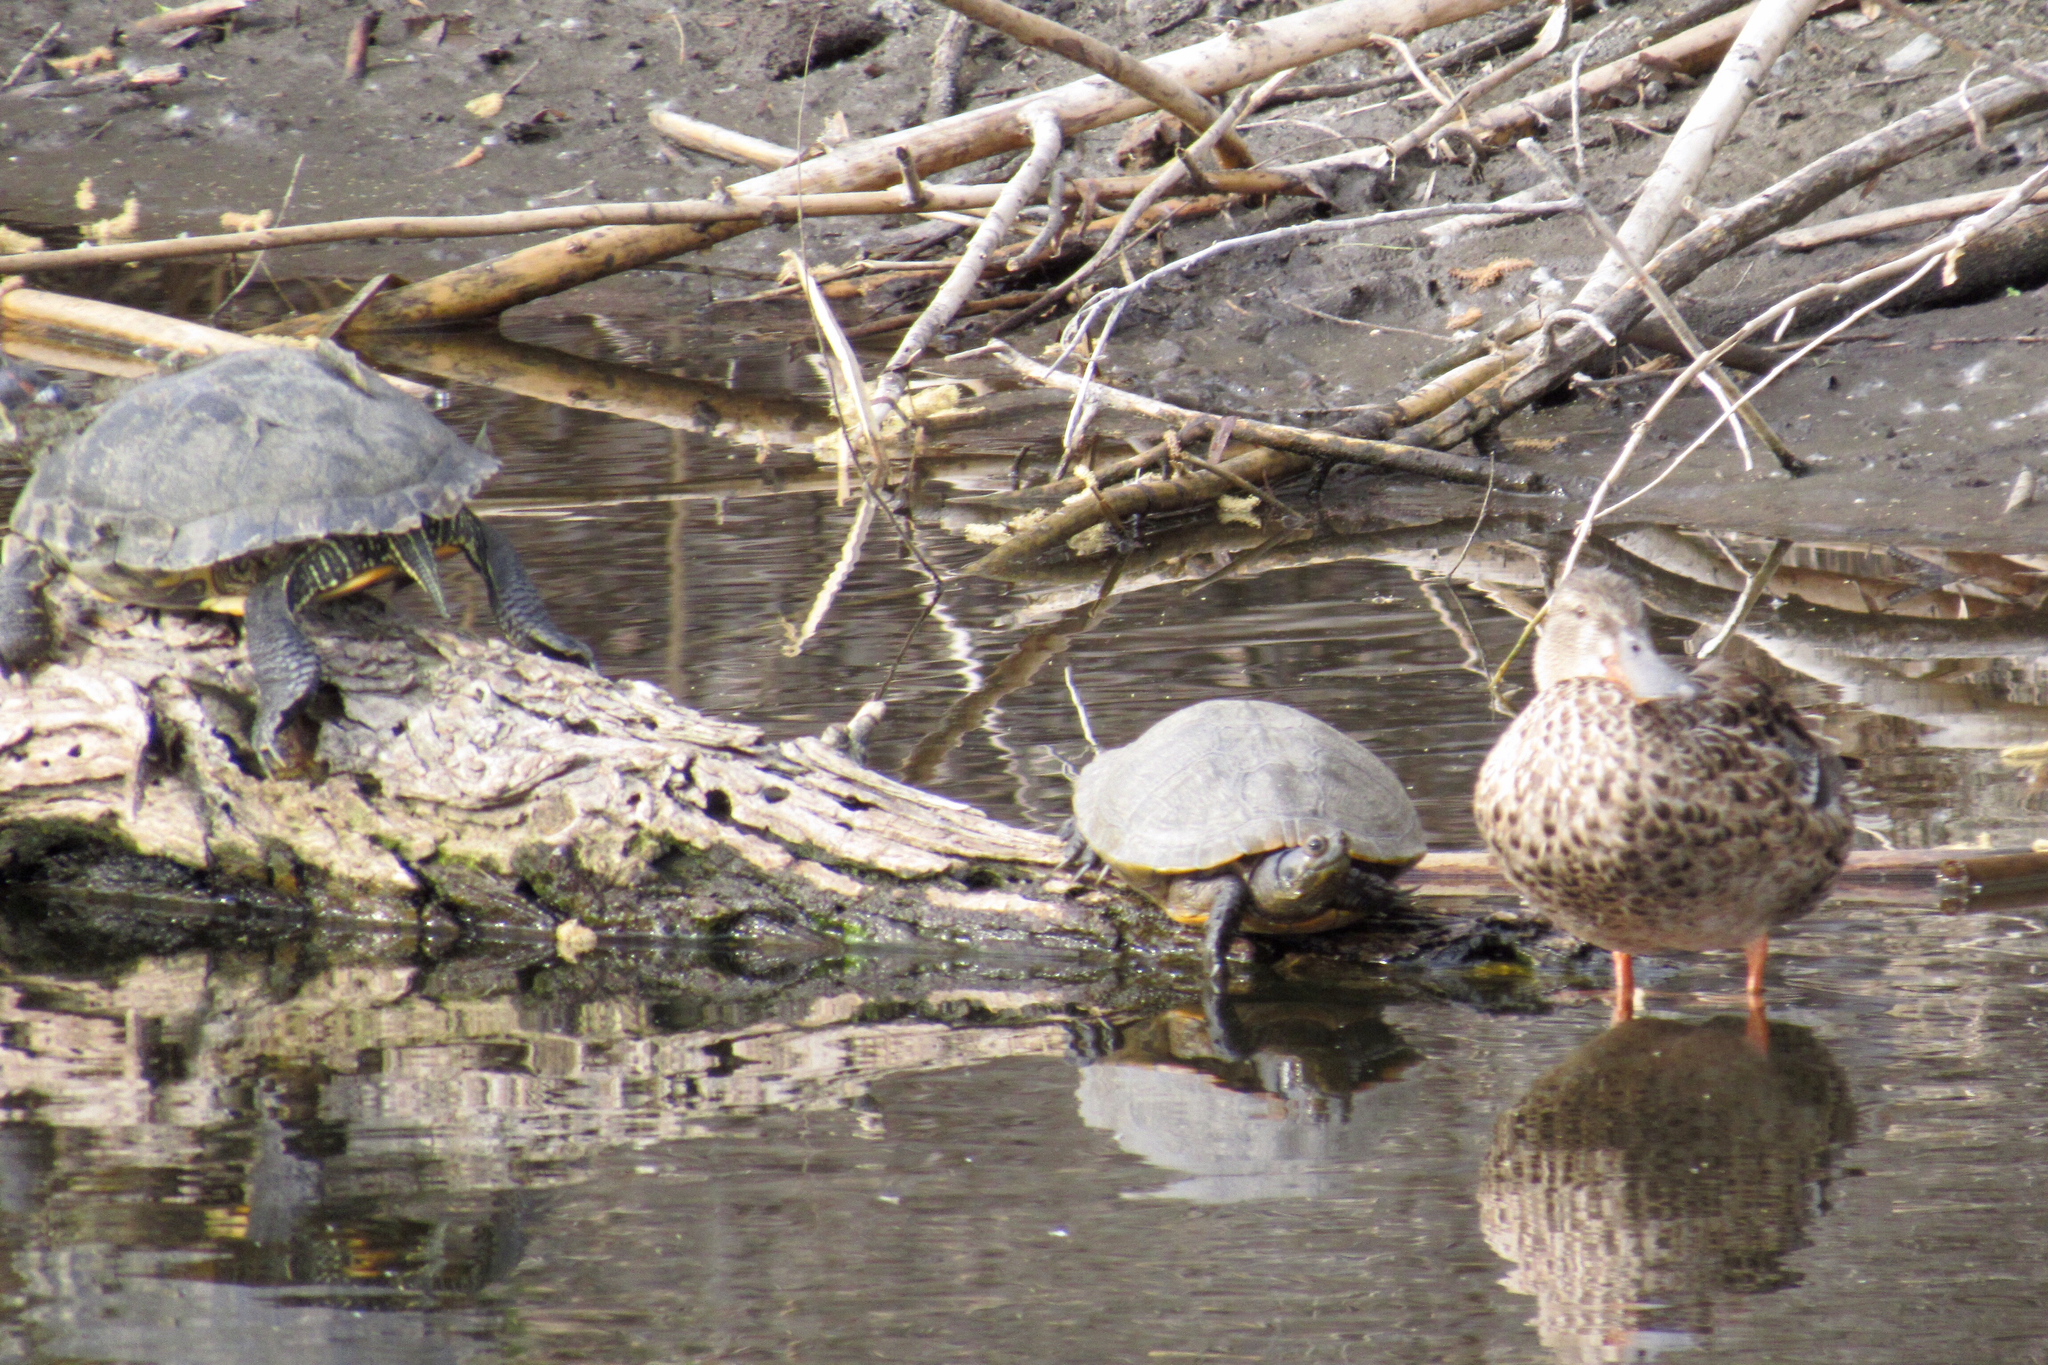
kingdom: Animalia
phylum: Chordata
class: Testudines
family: Emydidae
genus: Trachemys
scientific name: Trachemys scripta
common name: Slider
